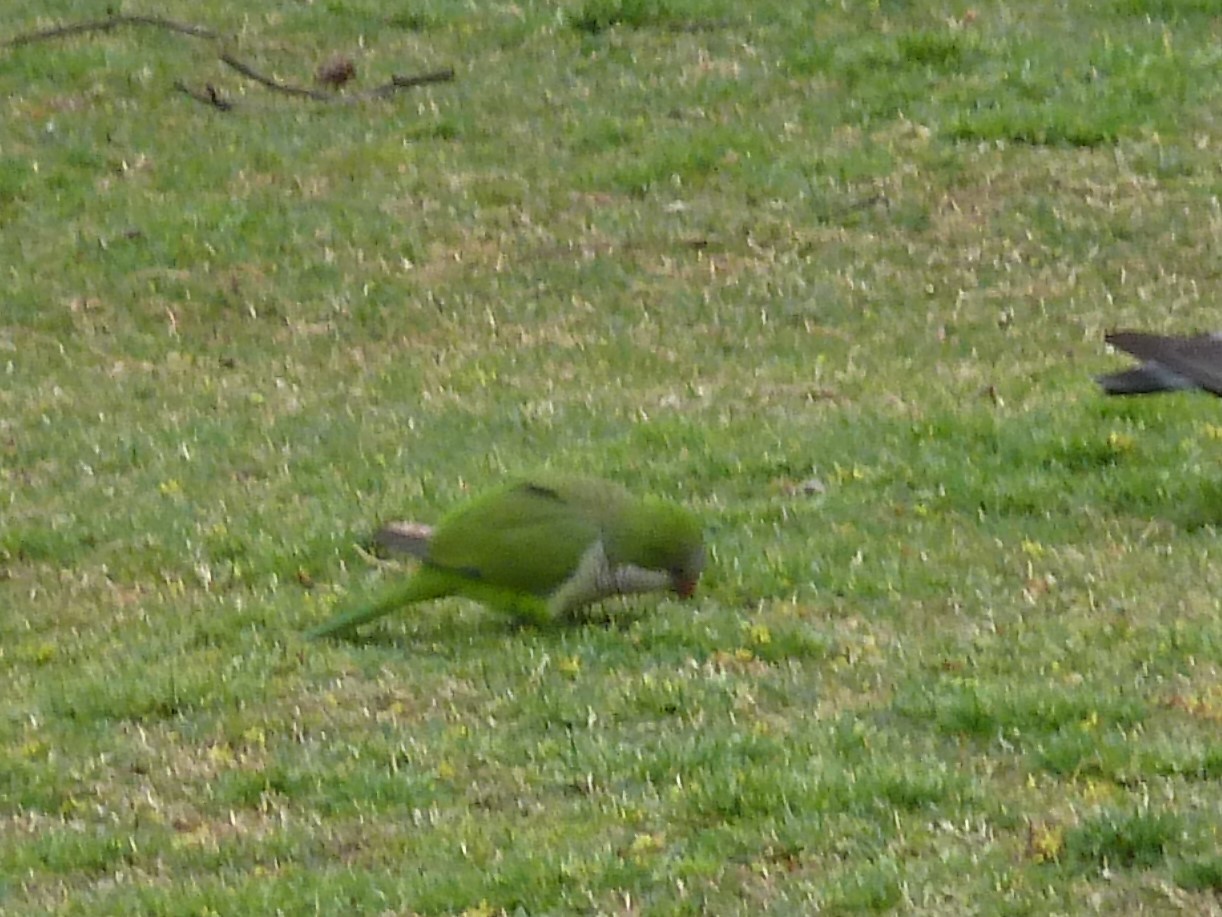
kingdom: Animalia
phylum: Chordata
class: Aves
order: Psittaciformes
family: Psittacidae
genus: Myiopsitta
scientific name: Myiopsitta monachus
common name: Monk parakeet
